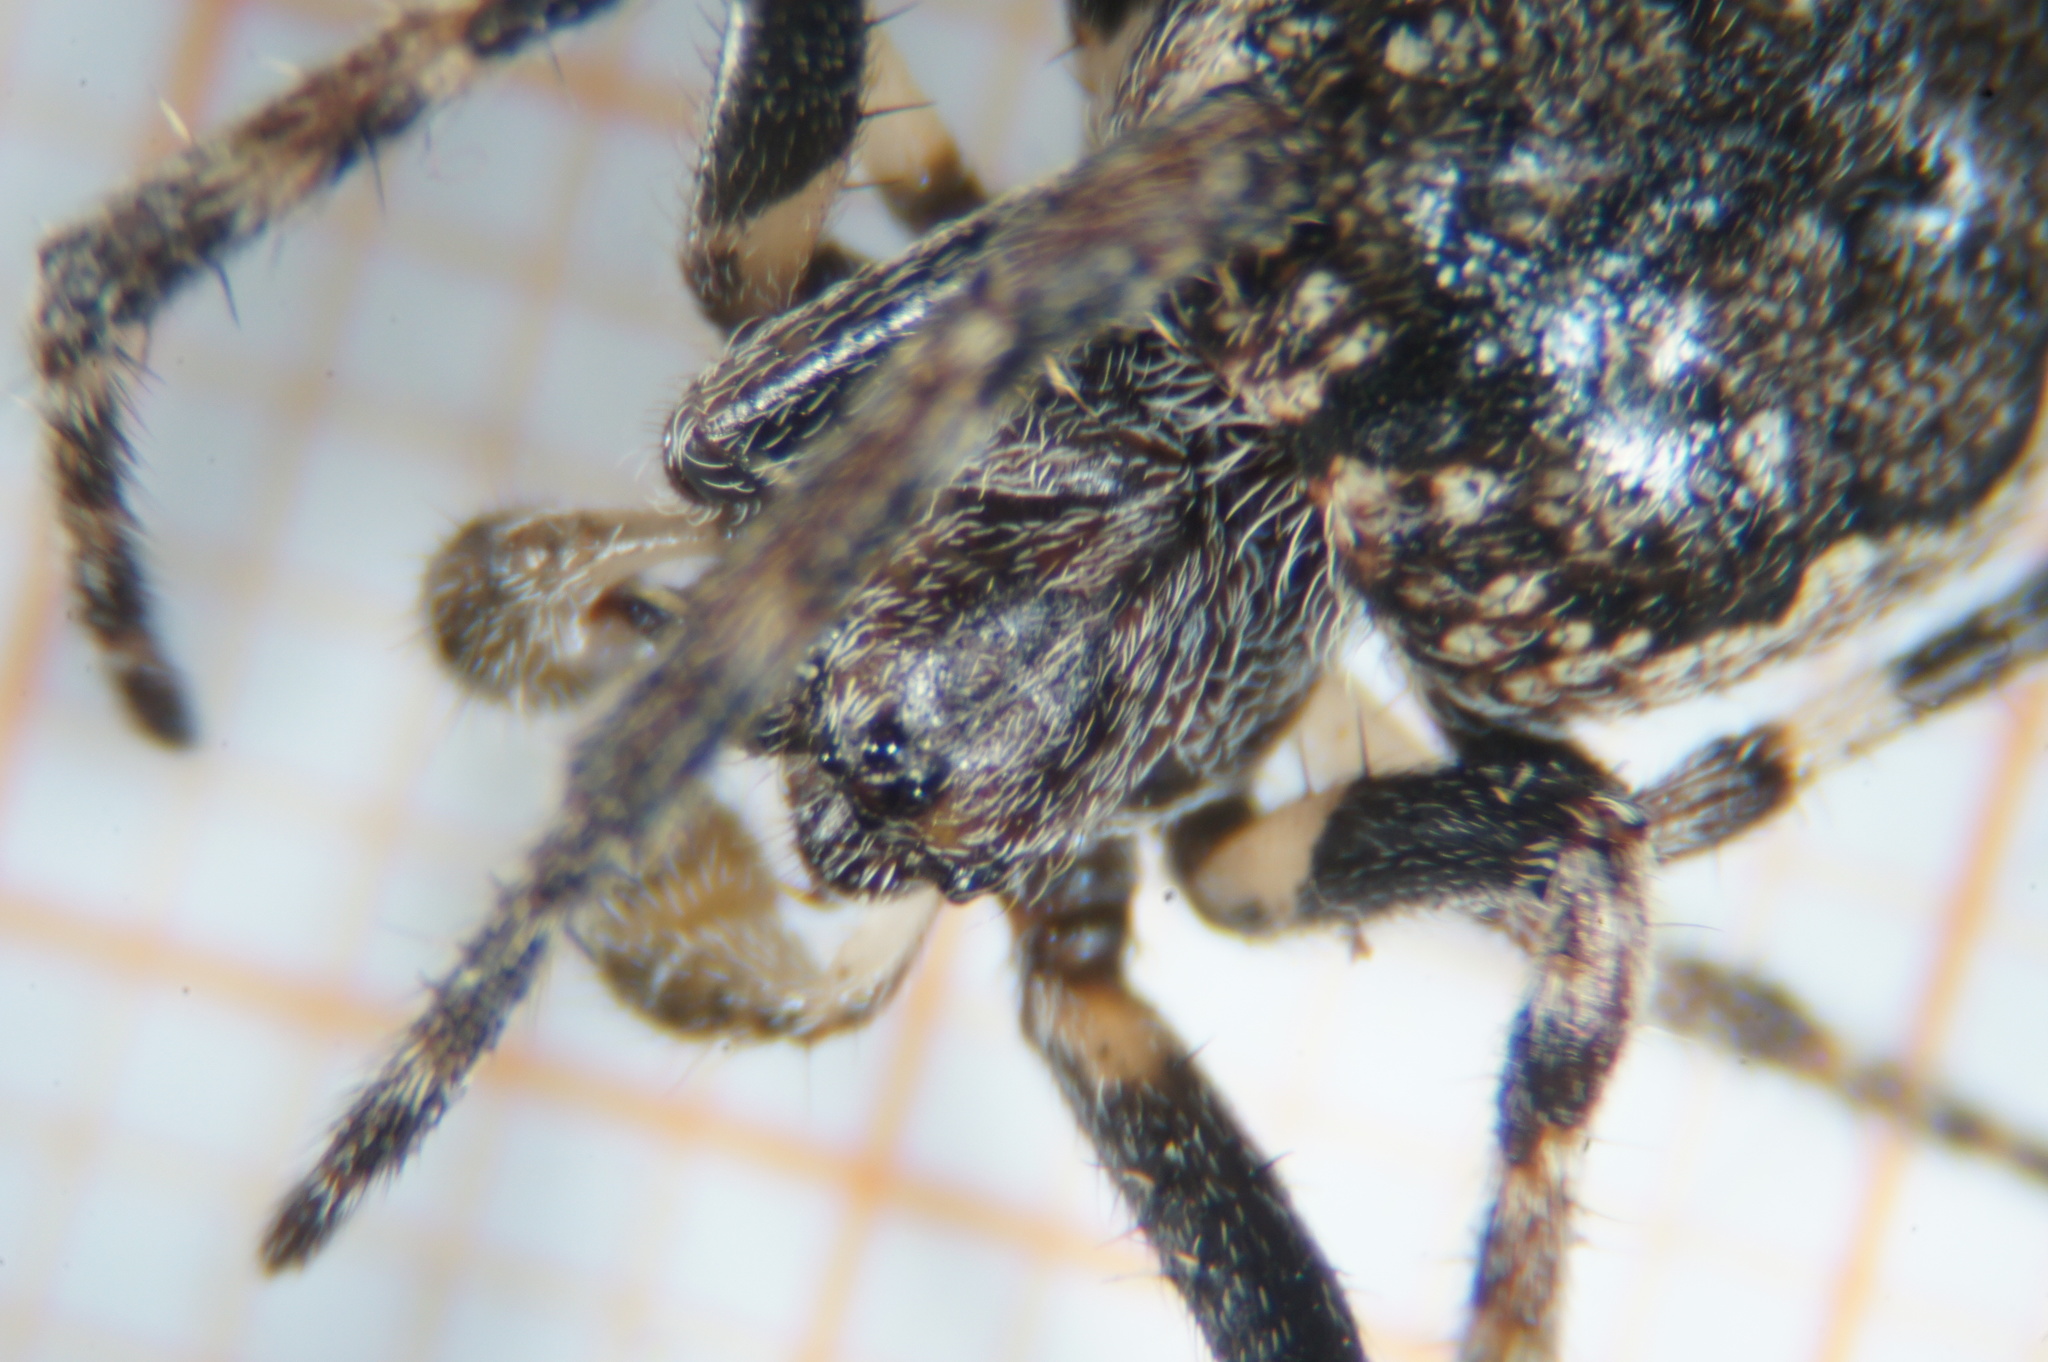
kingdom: Animalia
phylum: Arthropoda
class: Arachnida
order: Araneae
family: Araneidae
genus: Nuctenea
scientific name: Nuctenea umbratica
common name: Toad spider
